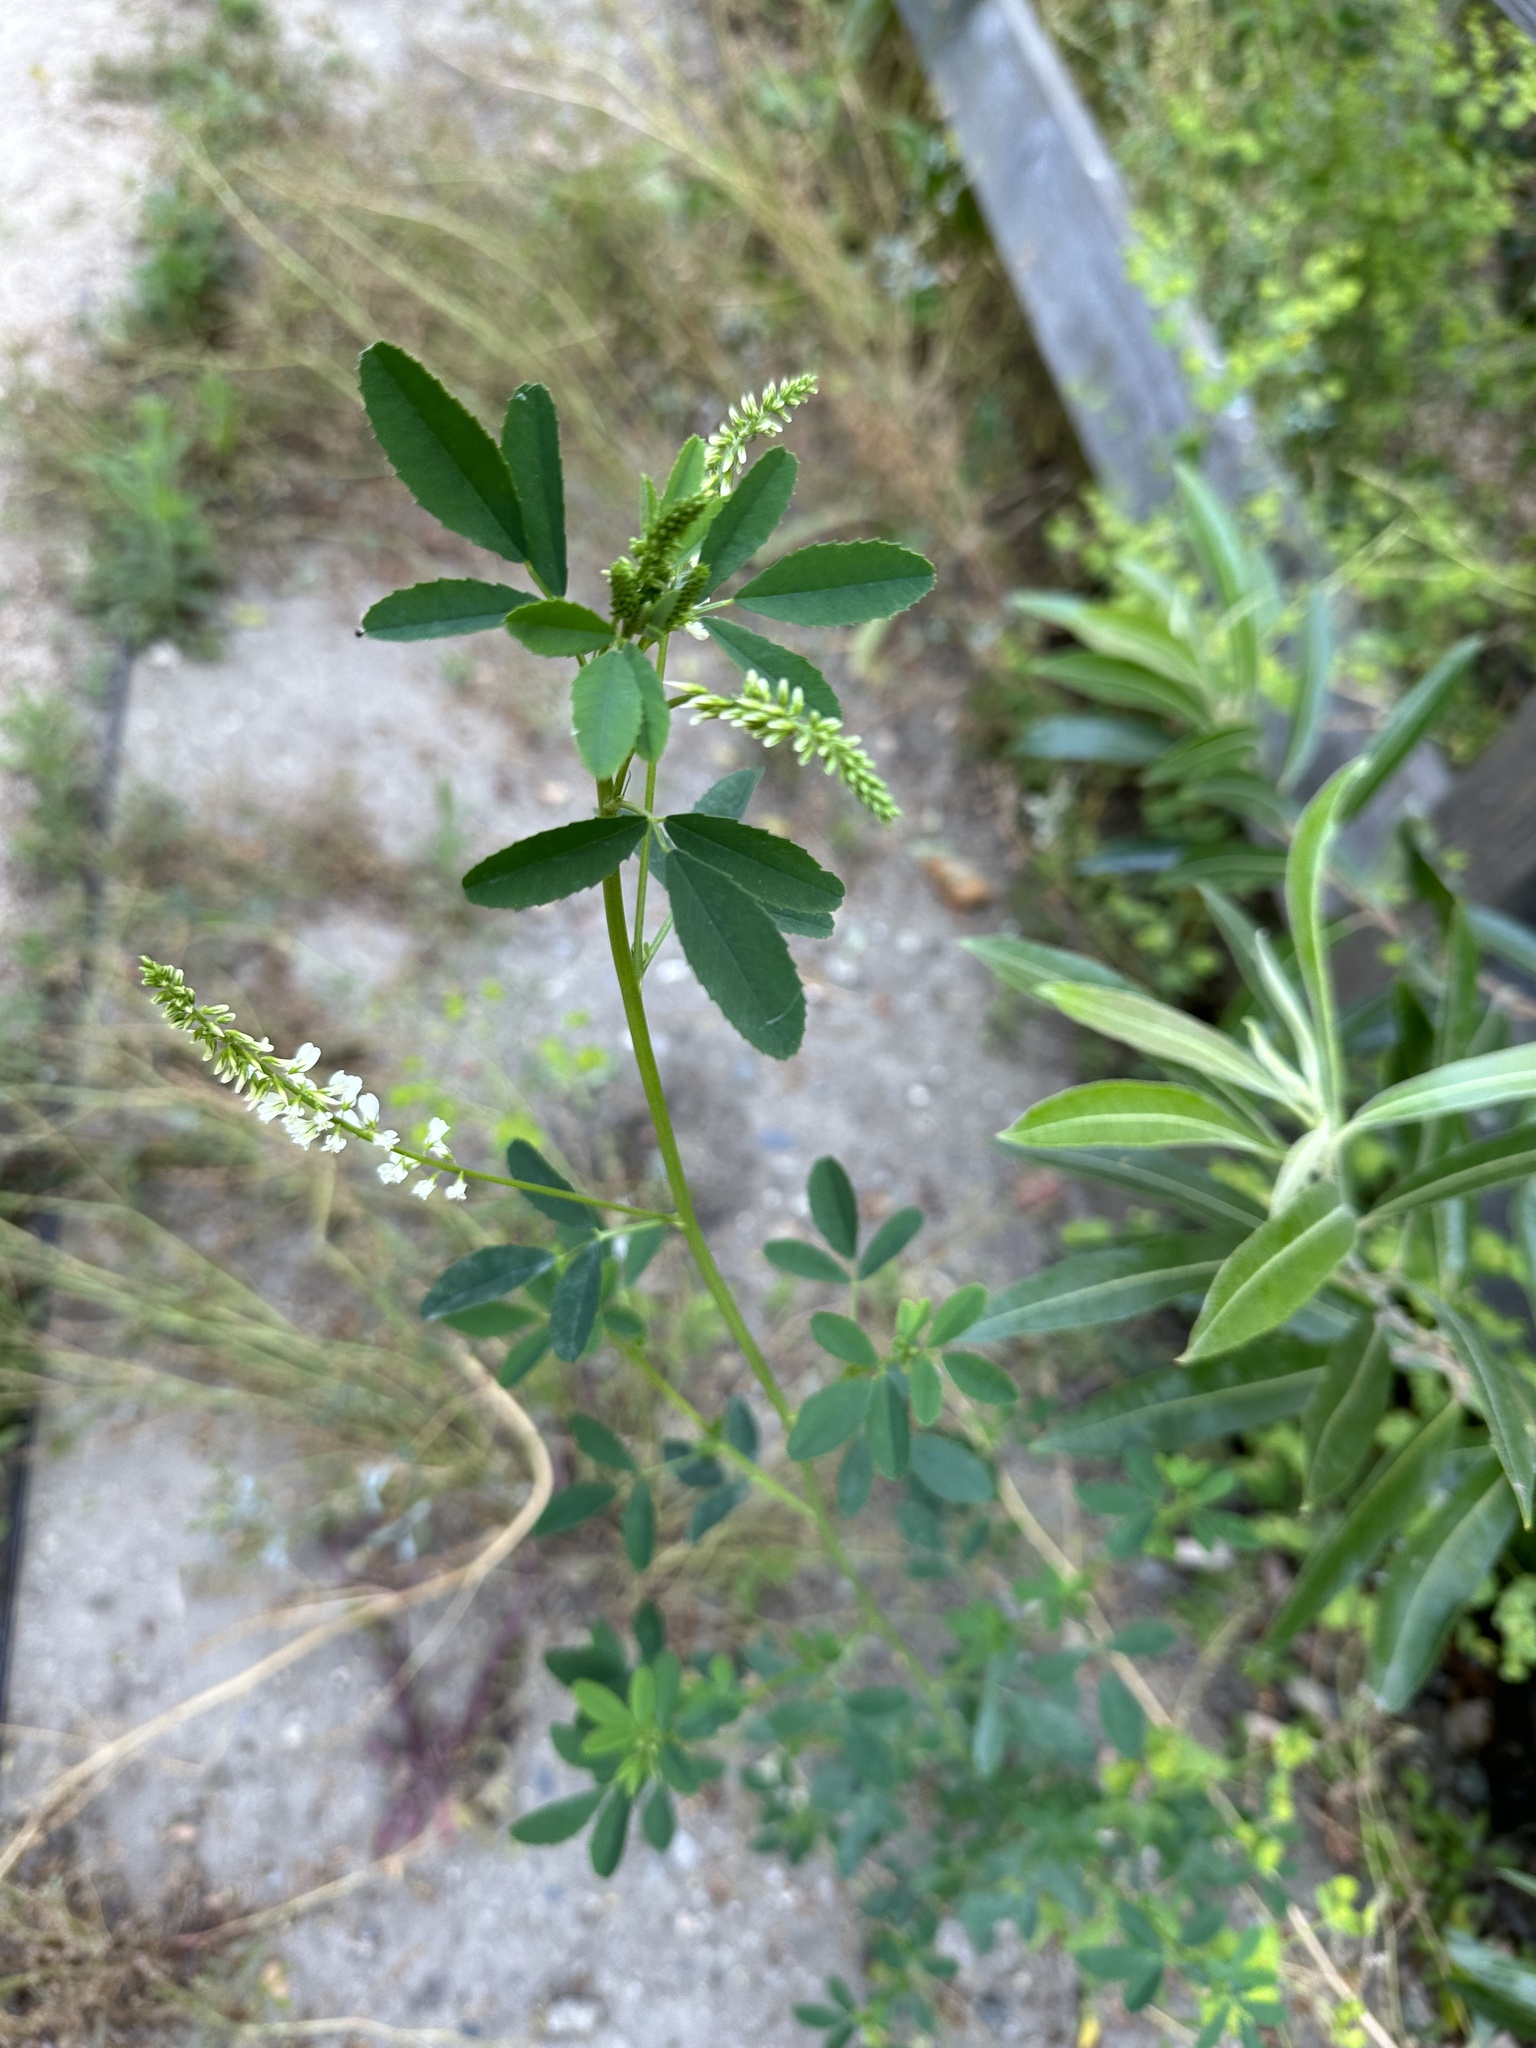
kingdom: Plantae
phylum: Tracheophyta
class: Magnoliopsida
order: Fabales
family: Fabaceae
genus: Melilotus
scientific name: Melilotus albus
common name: White melilot
